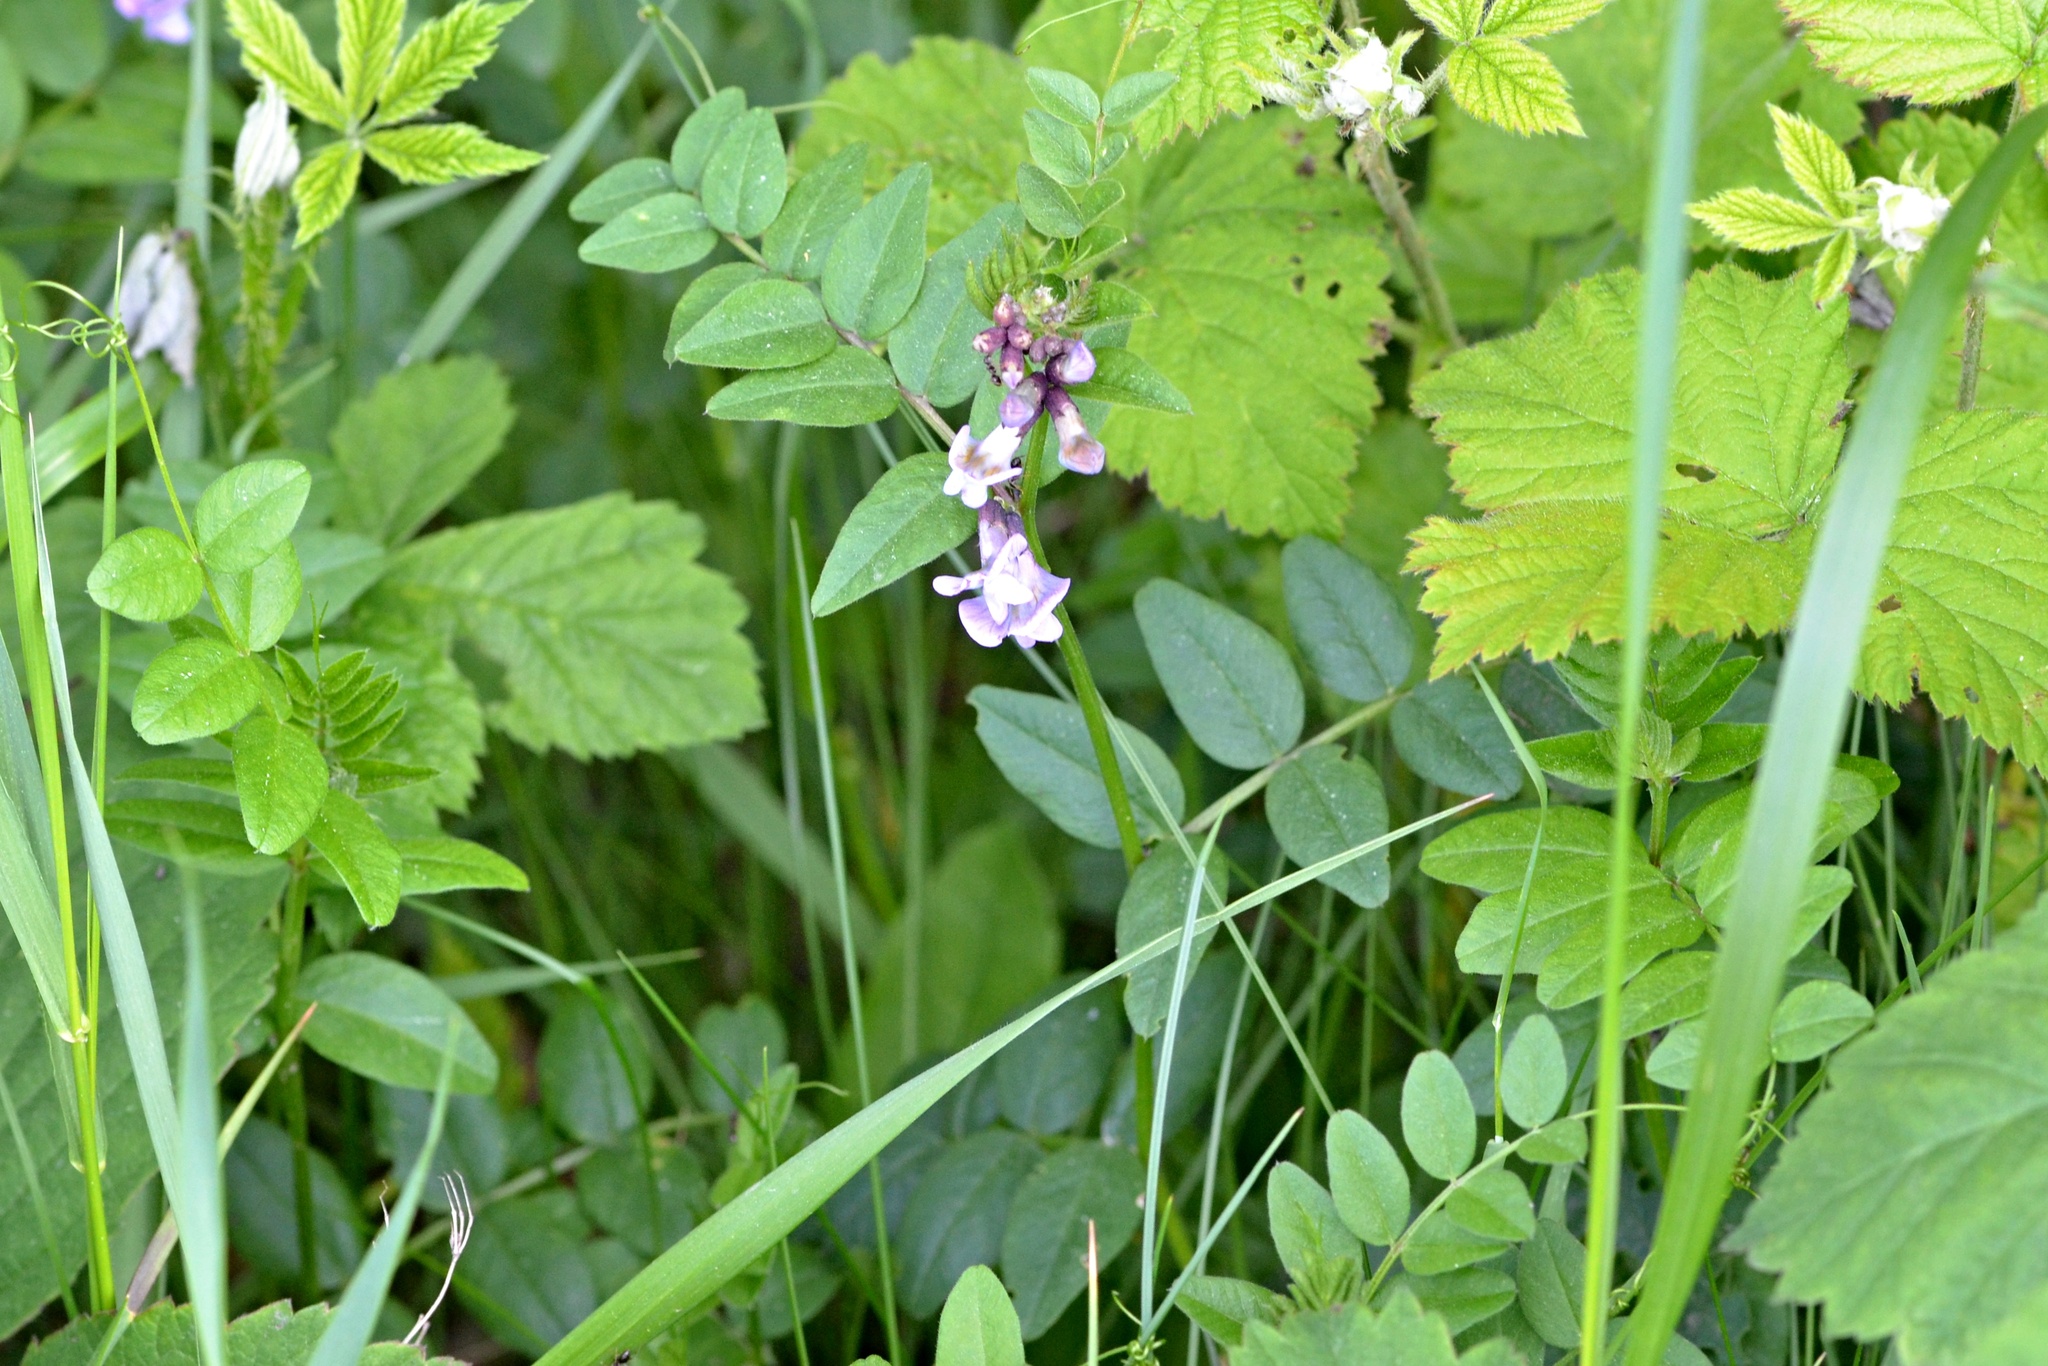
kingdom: Plantae
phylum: Tracheophyta
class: Magnoliopsida
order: Fabales
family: Fabaceae
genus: Vicia
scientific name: Vicia sepium
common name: Bush vetch
